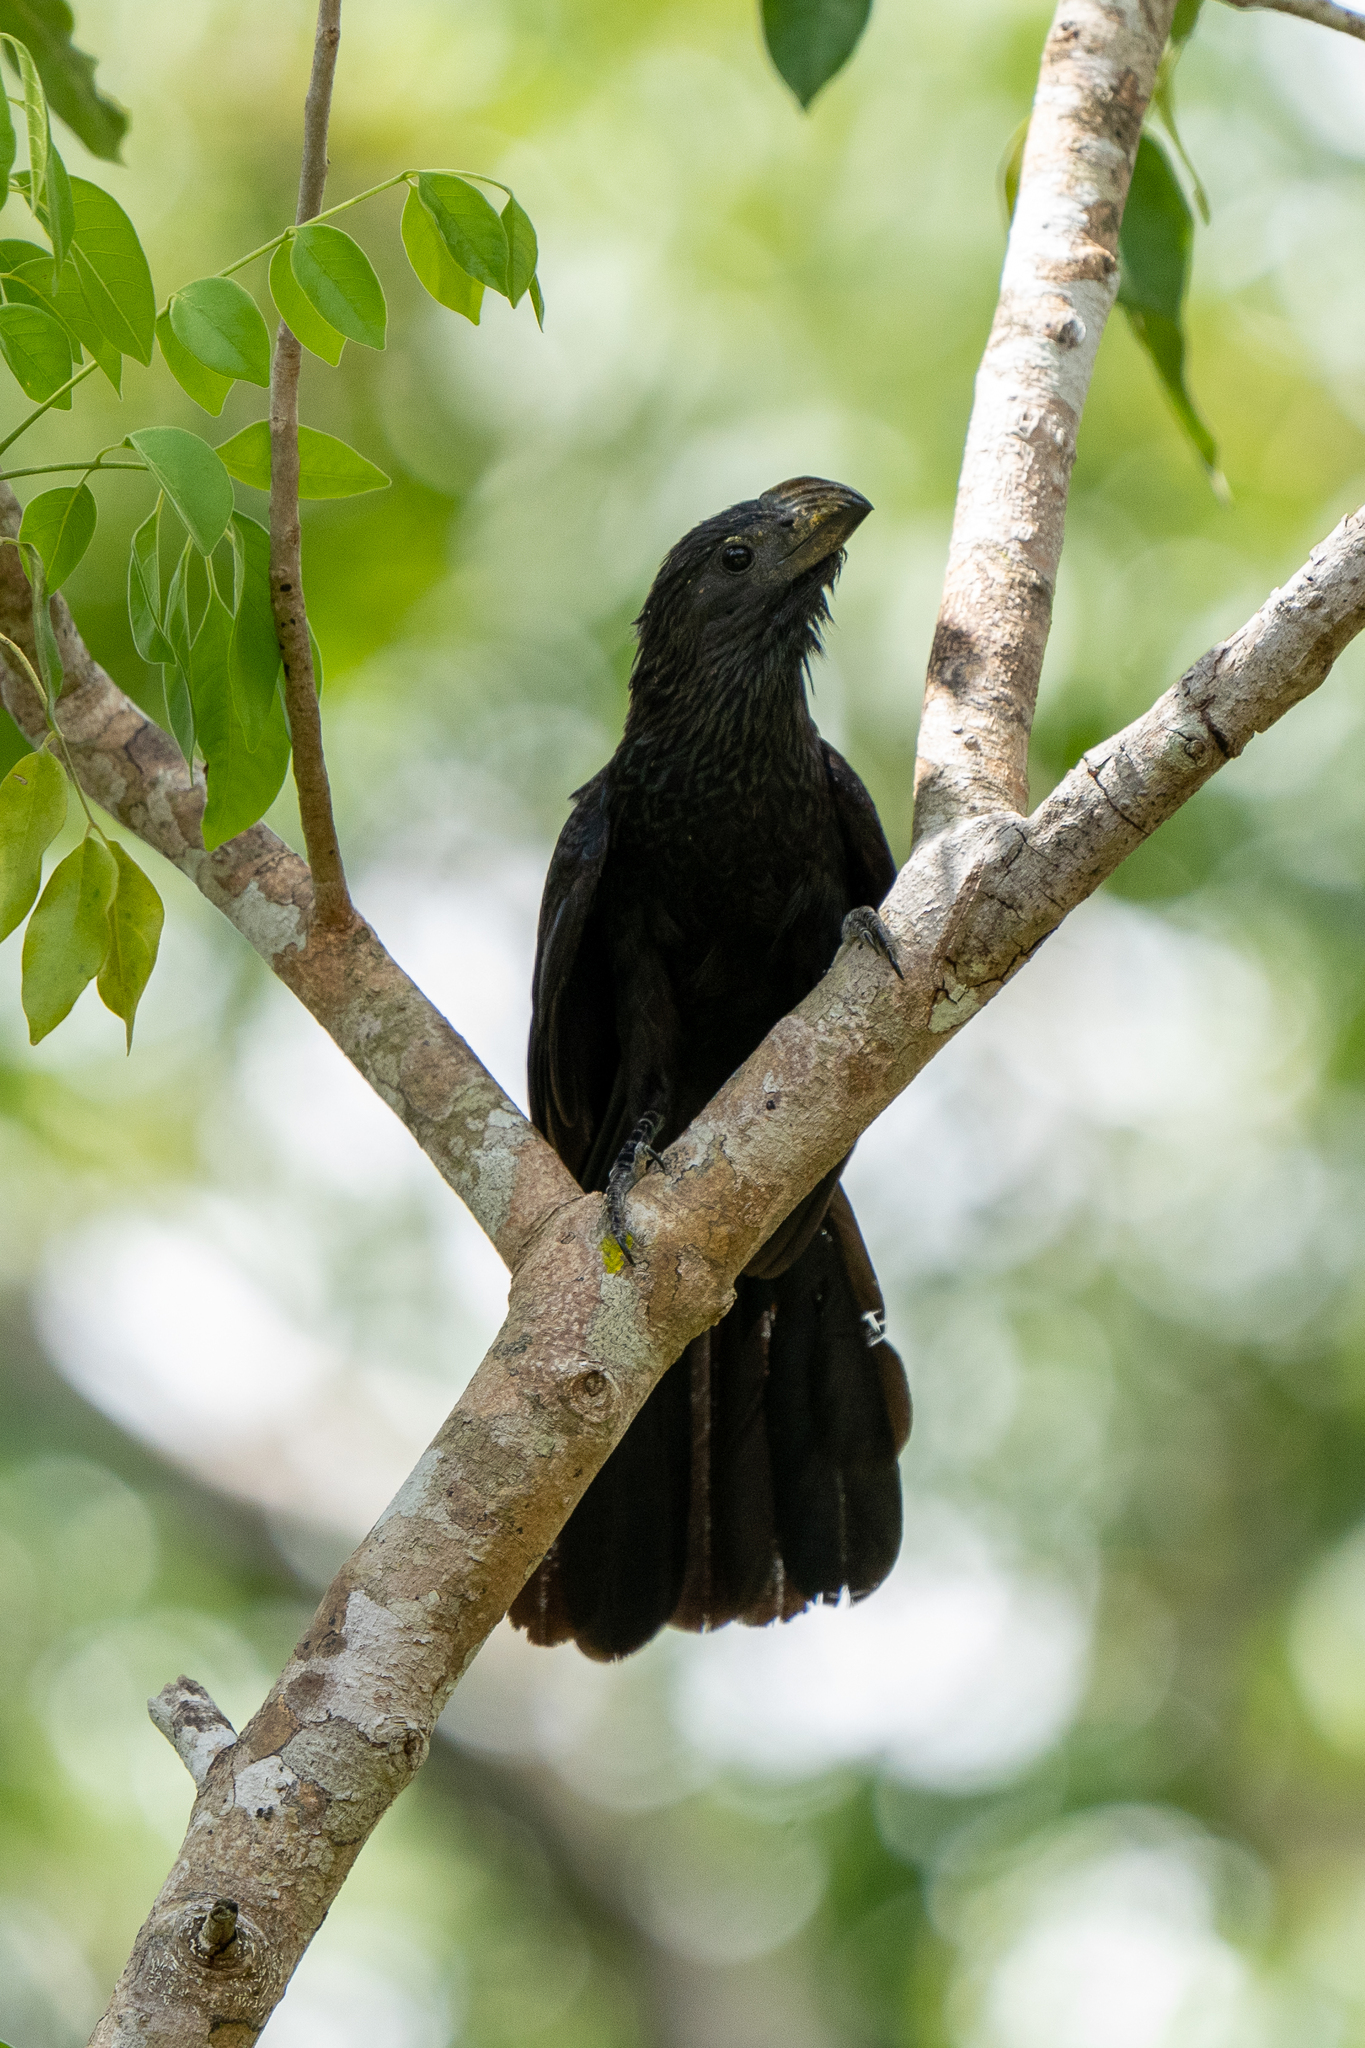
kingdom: Animalia
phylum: Chordata
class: Aves
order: Cuculiformes
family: Cuculidae
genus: Crotophaga
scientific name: Crotophaga sulcirostris
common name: Groove-billed ani
